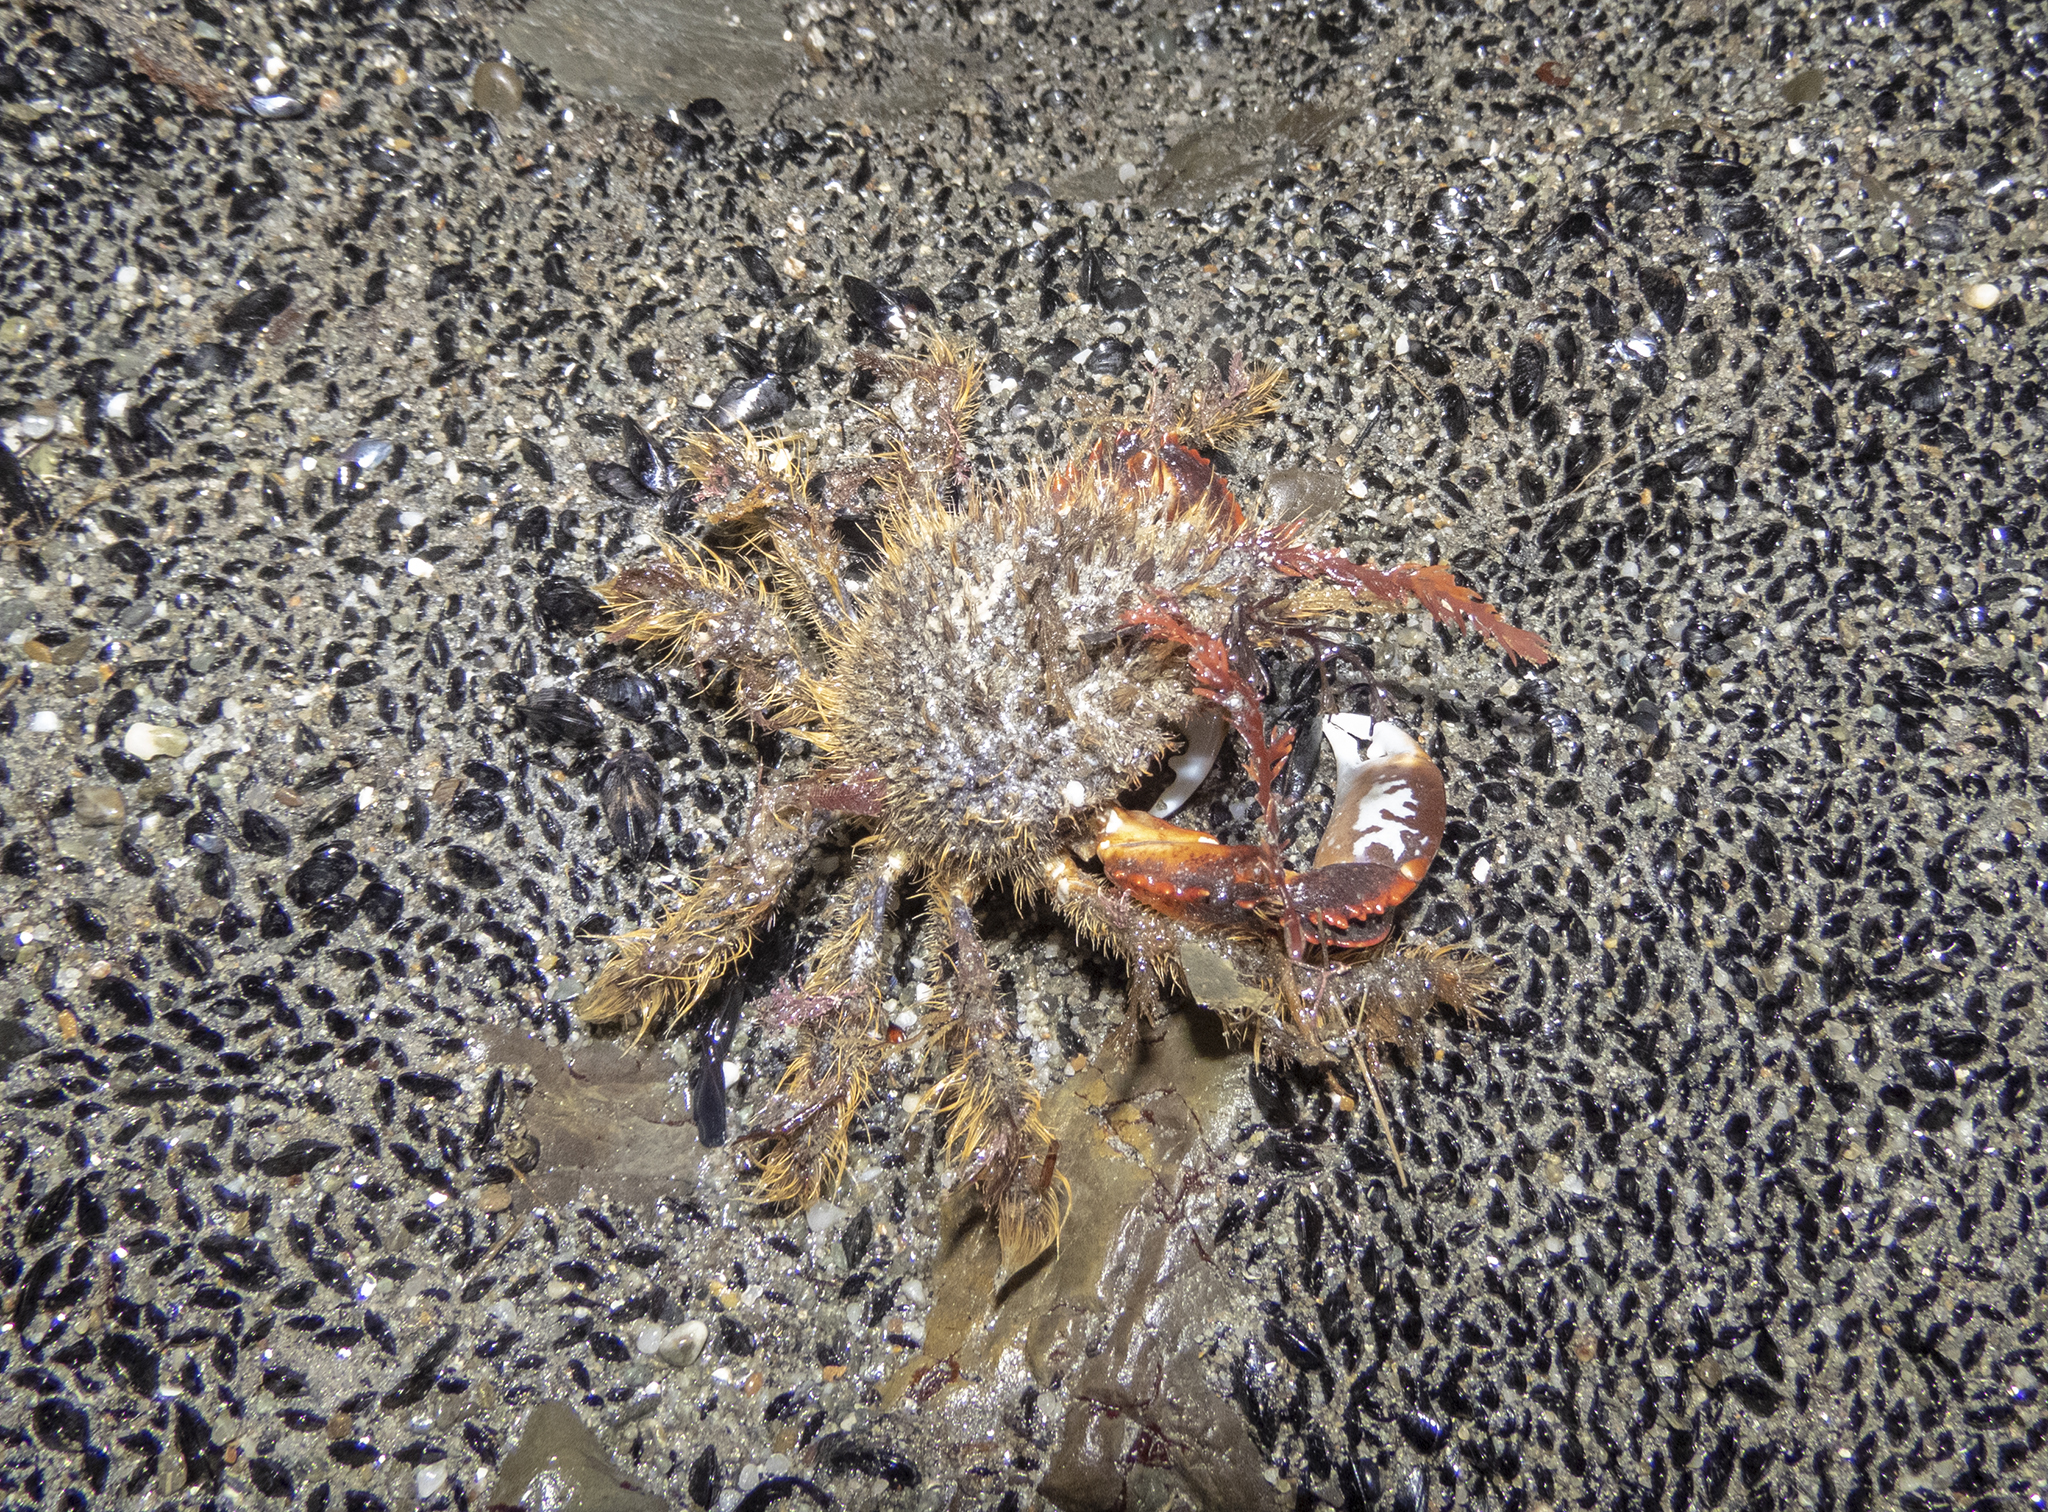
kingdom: Animalia
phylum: Arthropoda
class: Malacostraca
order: Decapoda
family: Majidae
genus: Notomithrax
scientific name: Notomithrax ursus
